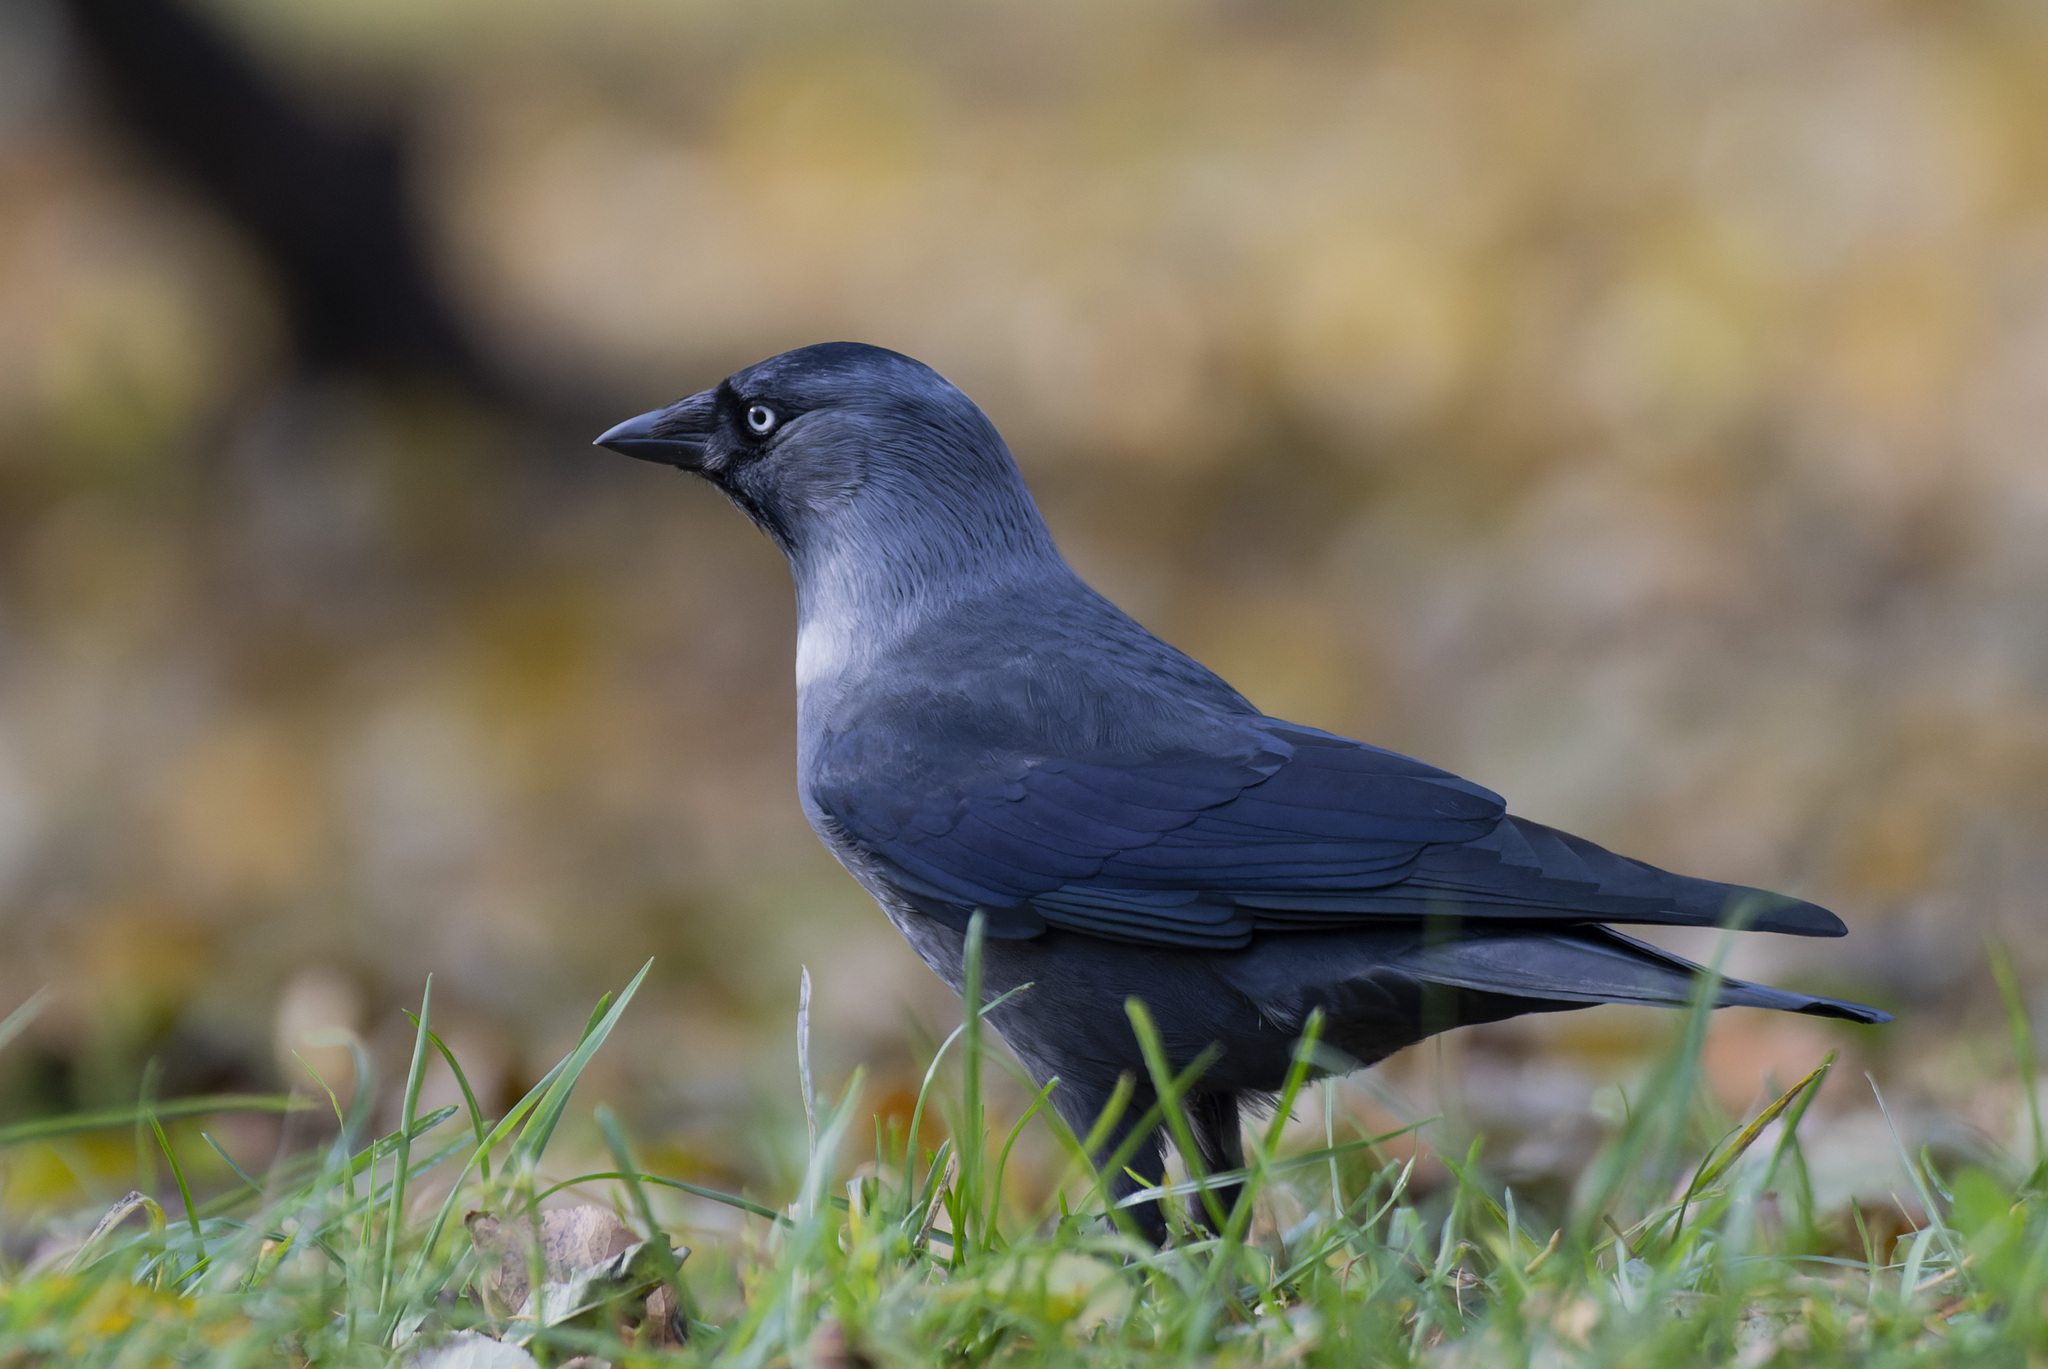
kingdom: Animalia
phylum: Chordata
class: Aves
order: Passeriformes
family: Corvidae
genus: Coloeus
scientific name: Coloeus monedula
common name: Western jackdaw
